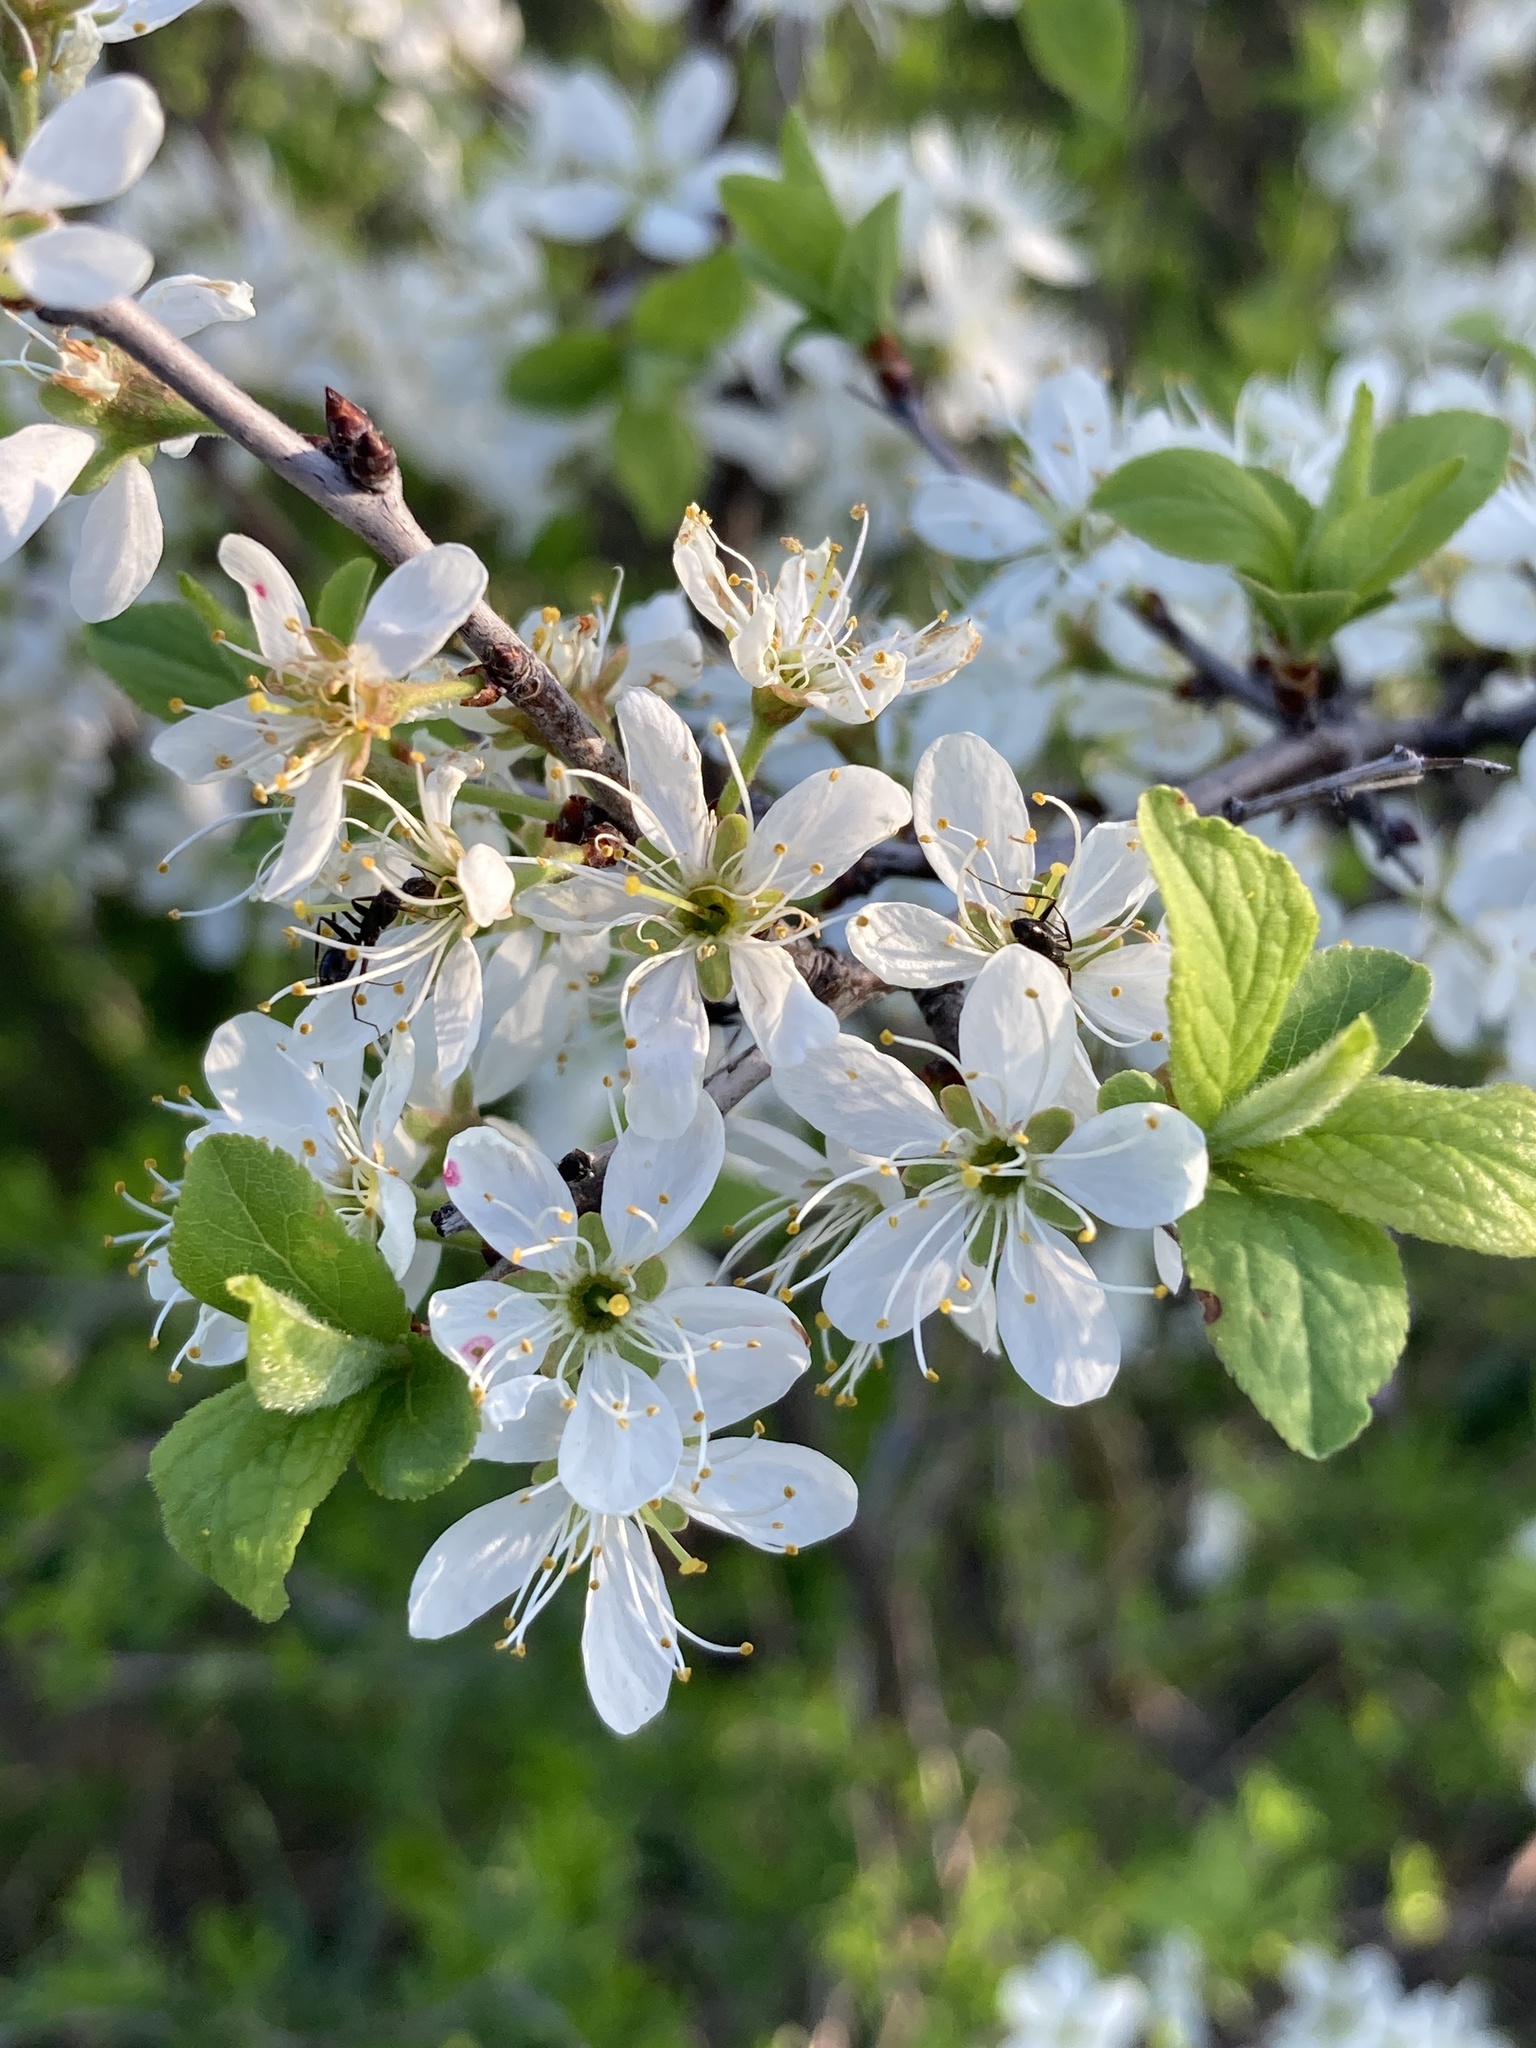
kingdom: Plantae
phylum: Tracheophyta
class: Magnoliopsida
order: Rosales
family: Rosaceae
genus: Prunus
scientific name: Prunus spinosa
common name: Blackthorn
